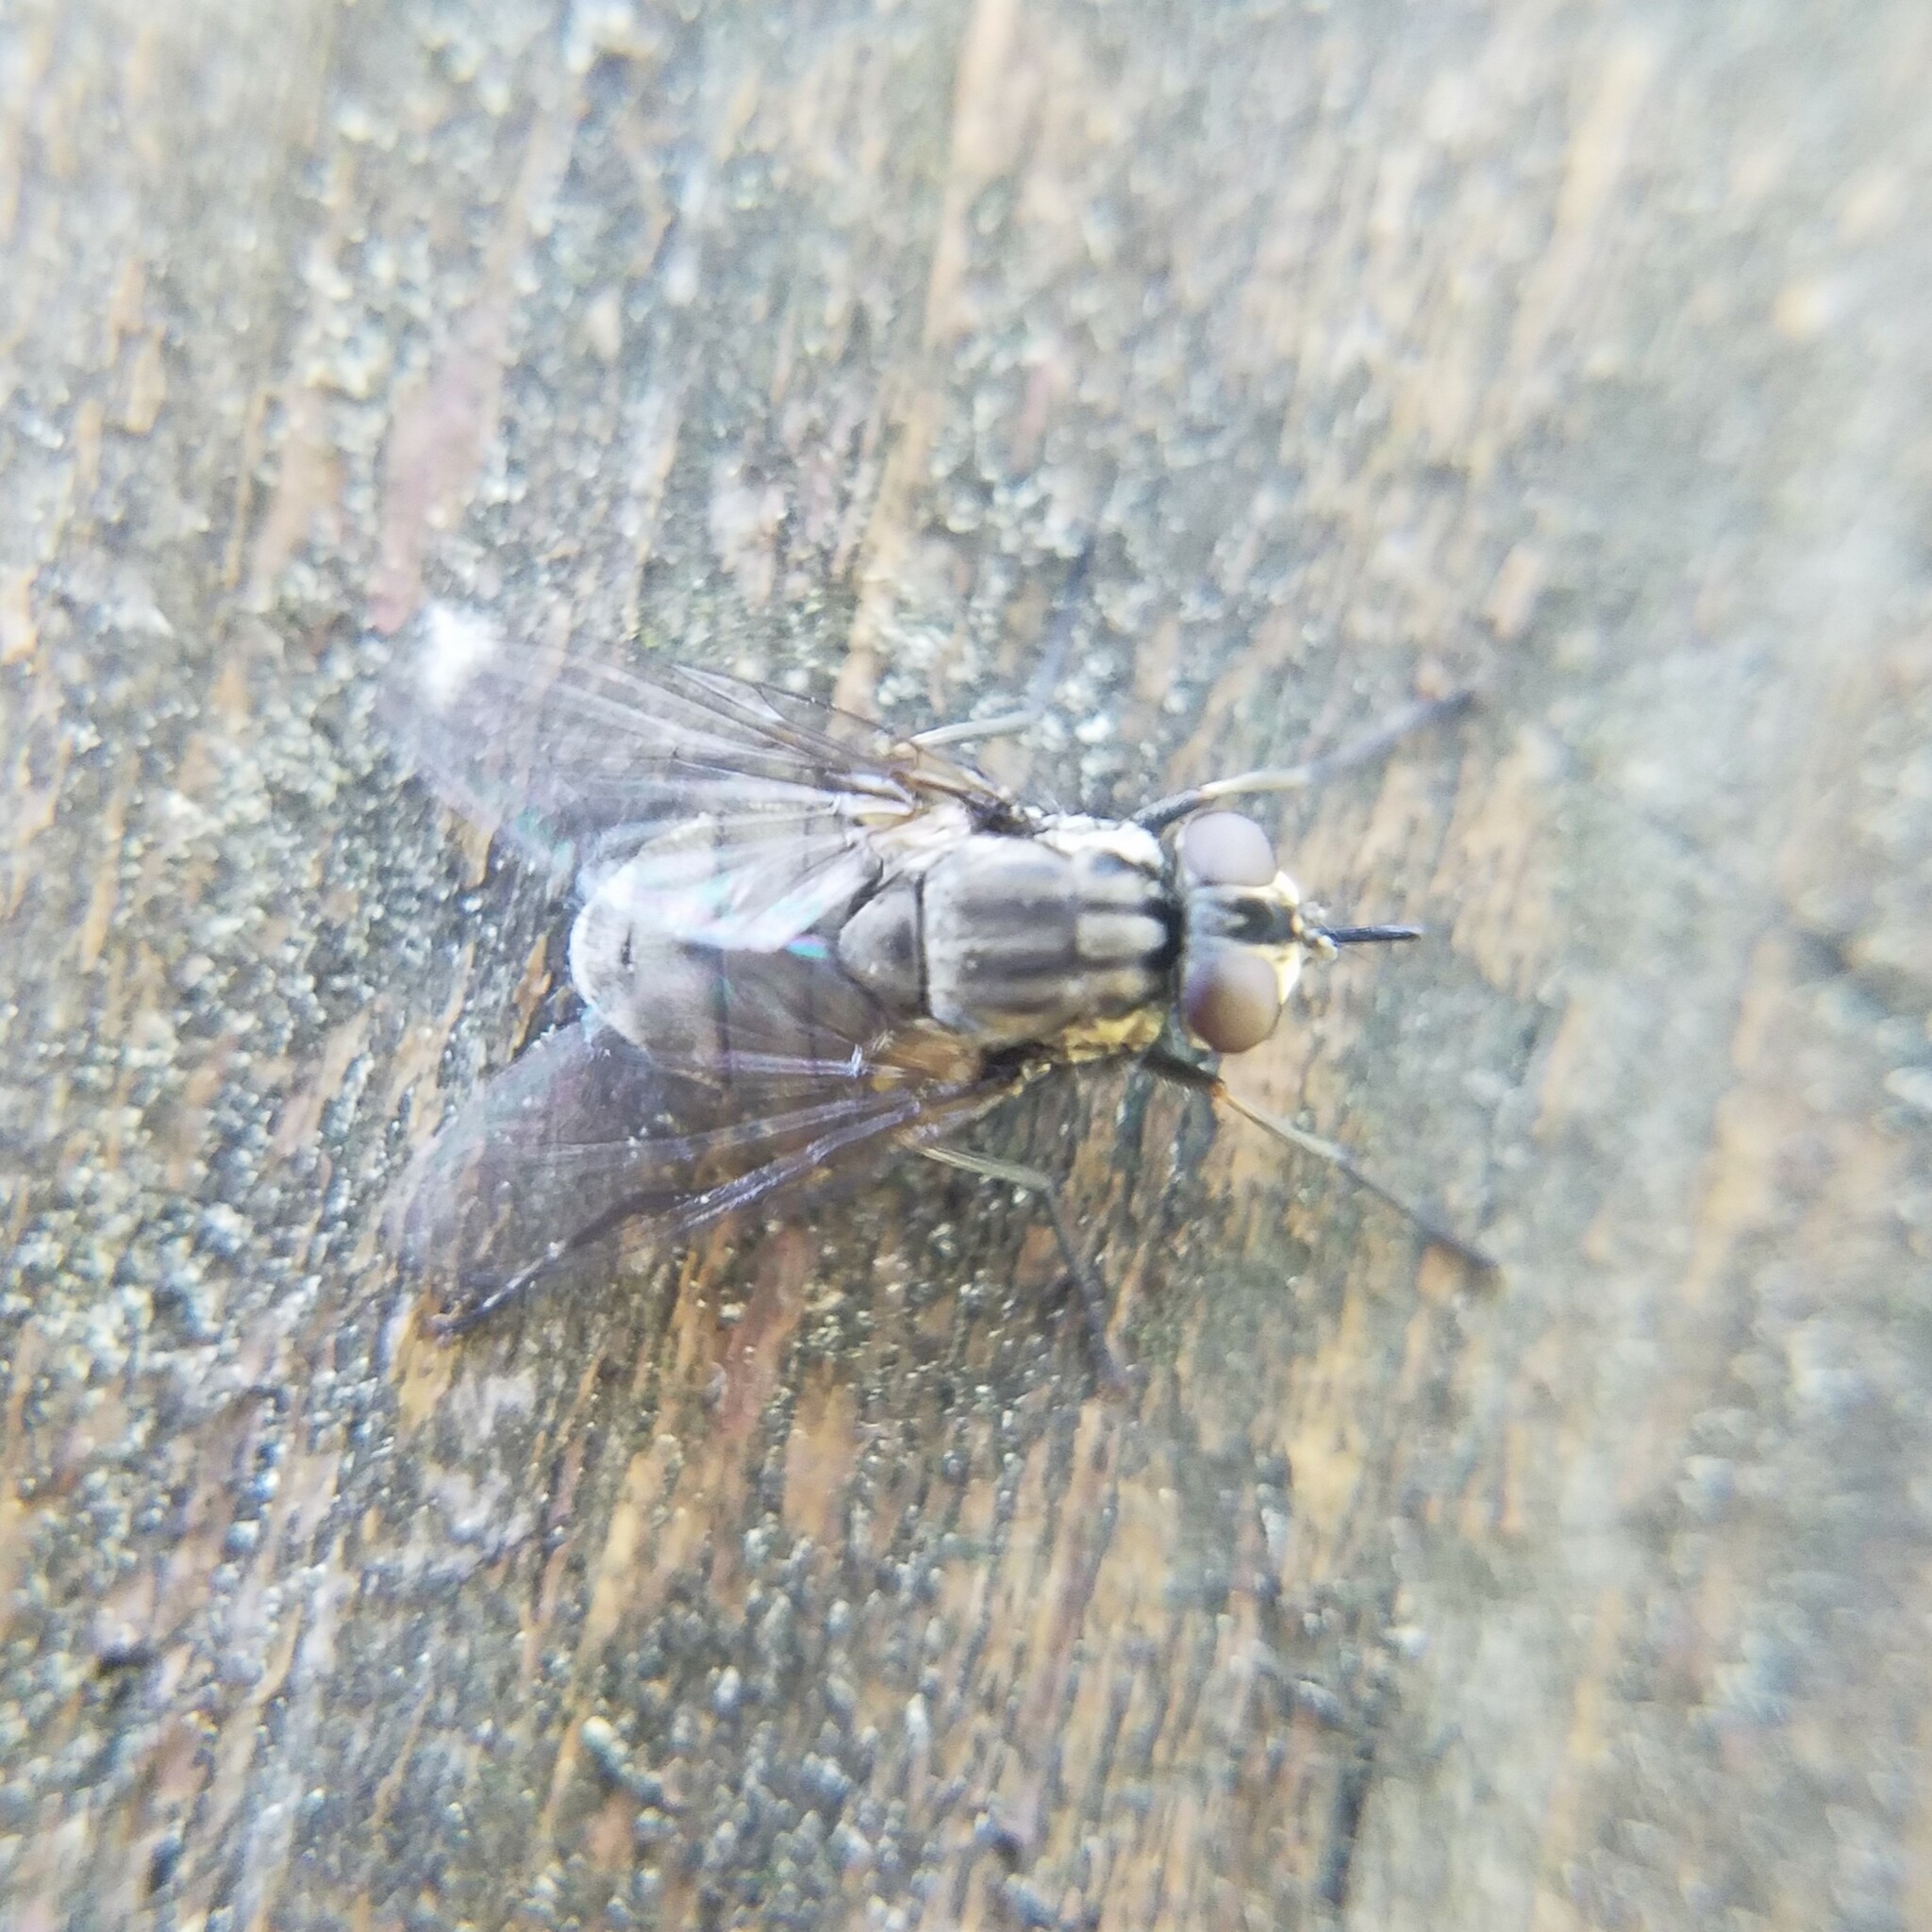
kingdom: Animalia
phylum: Arthropoda
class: Insecta
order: Diptera
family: Muscidae
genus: Stomoxys
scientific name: Stomoxys calcitrans
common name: Stable fly
